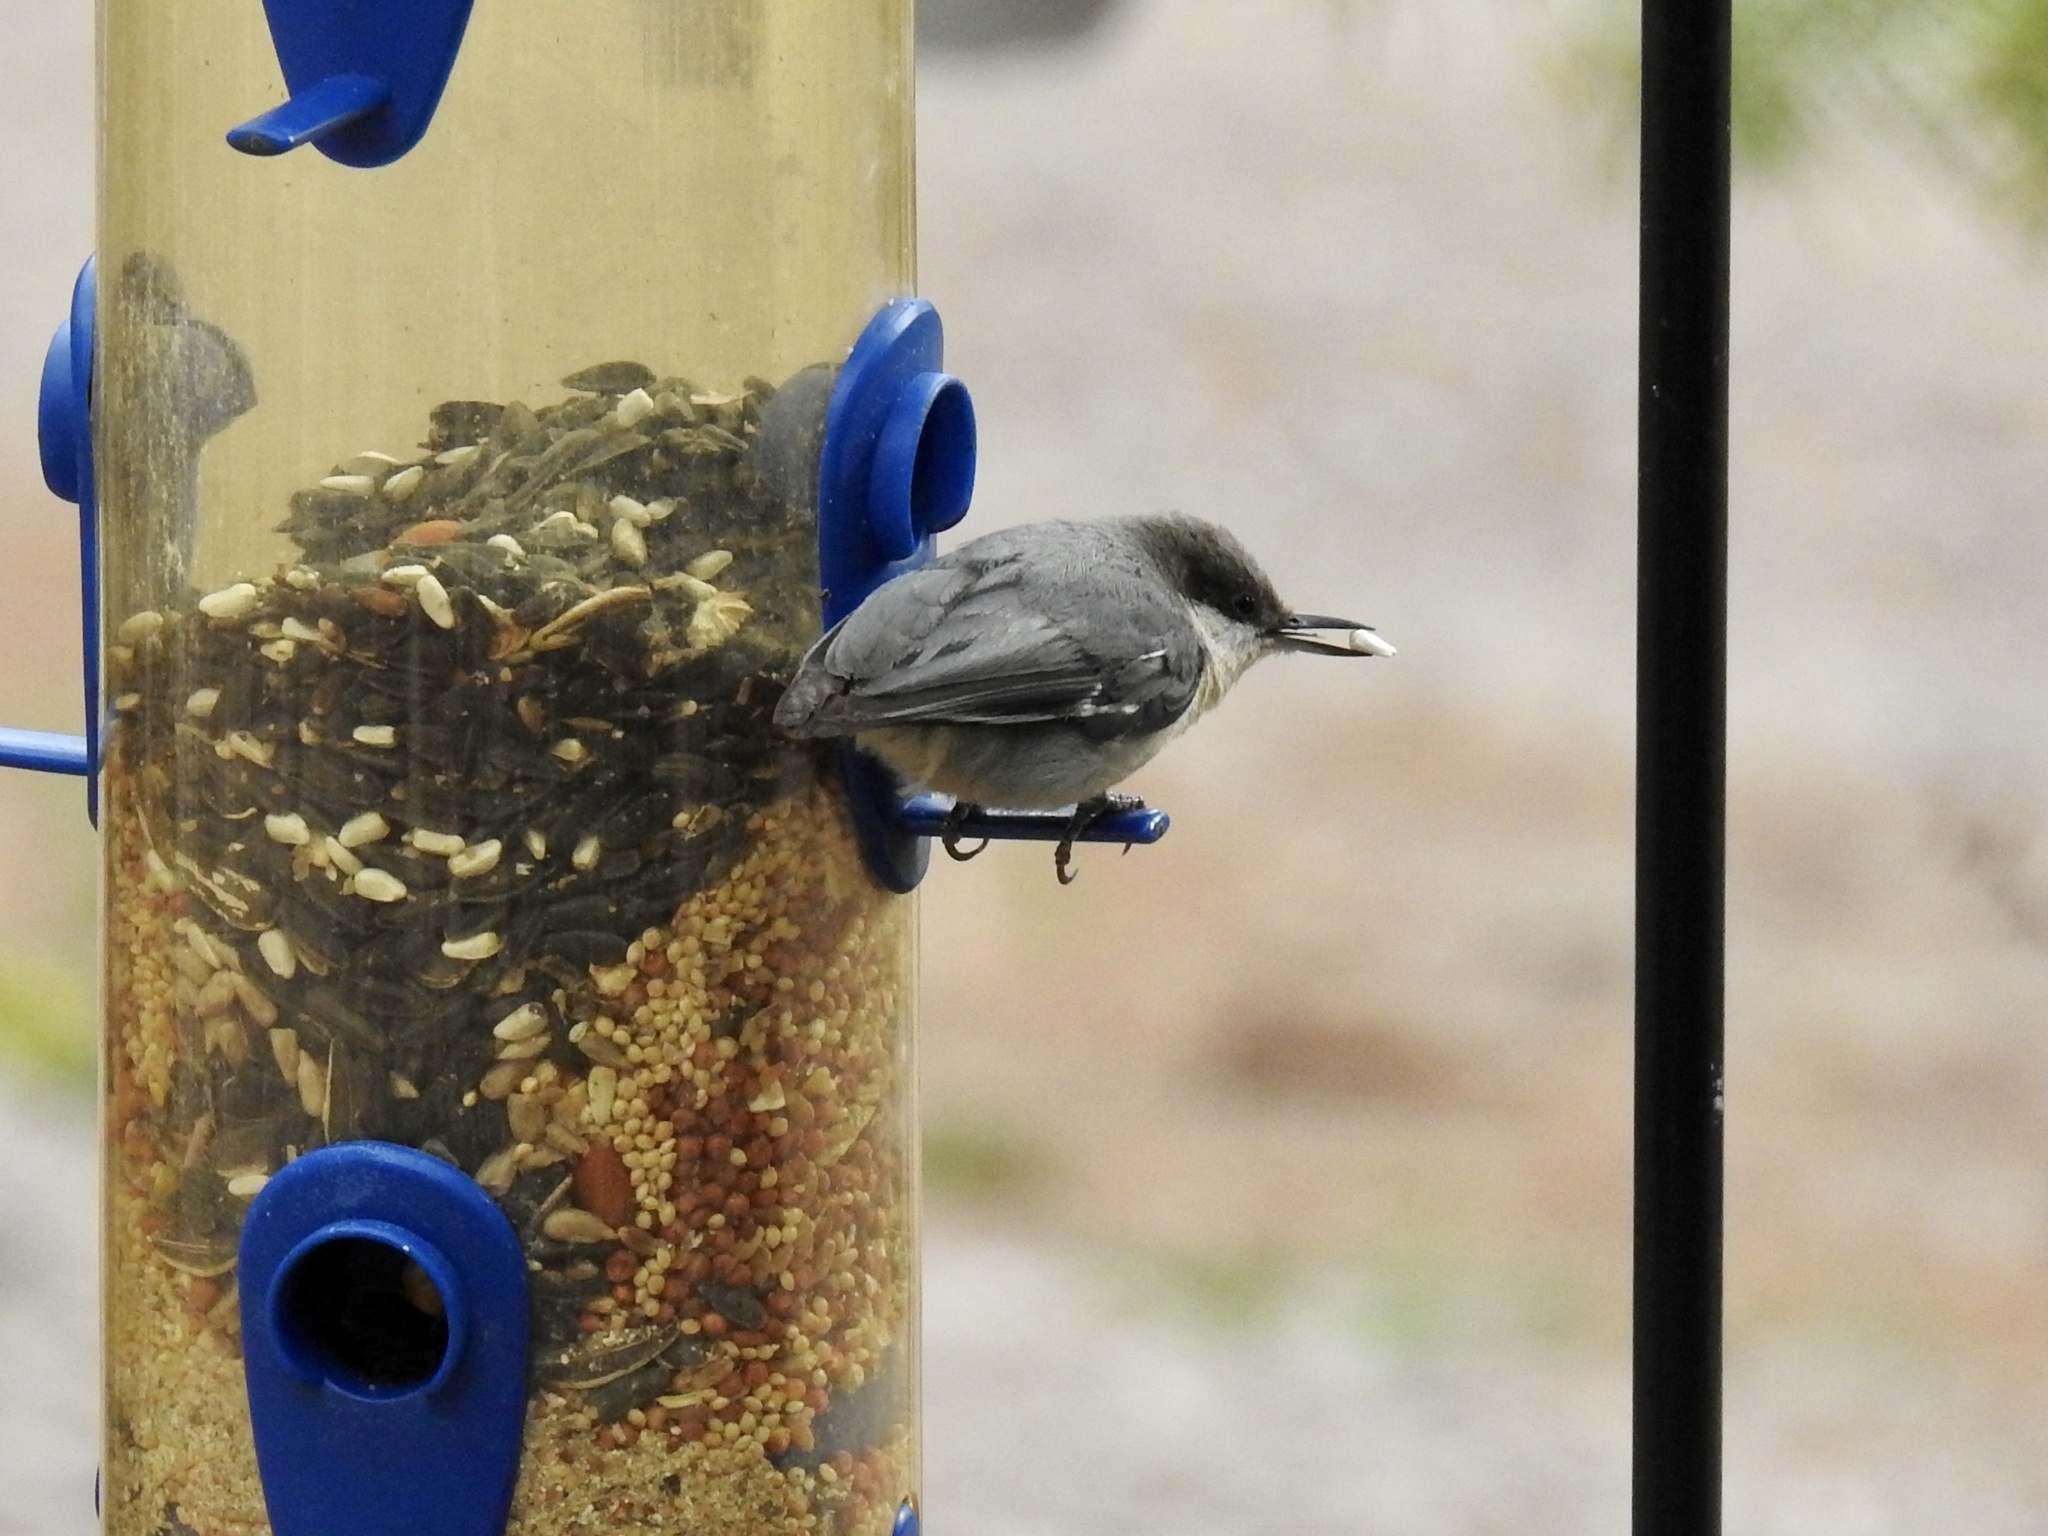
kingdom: Animalia
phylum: Chordata
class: Aves
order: Passeriformes
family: Sittidae
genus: Sitta
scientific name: Sitta pygmaea
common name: Pygmy nuthatch
